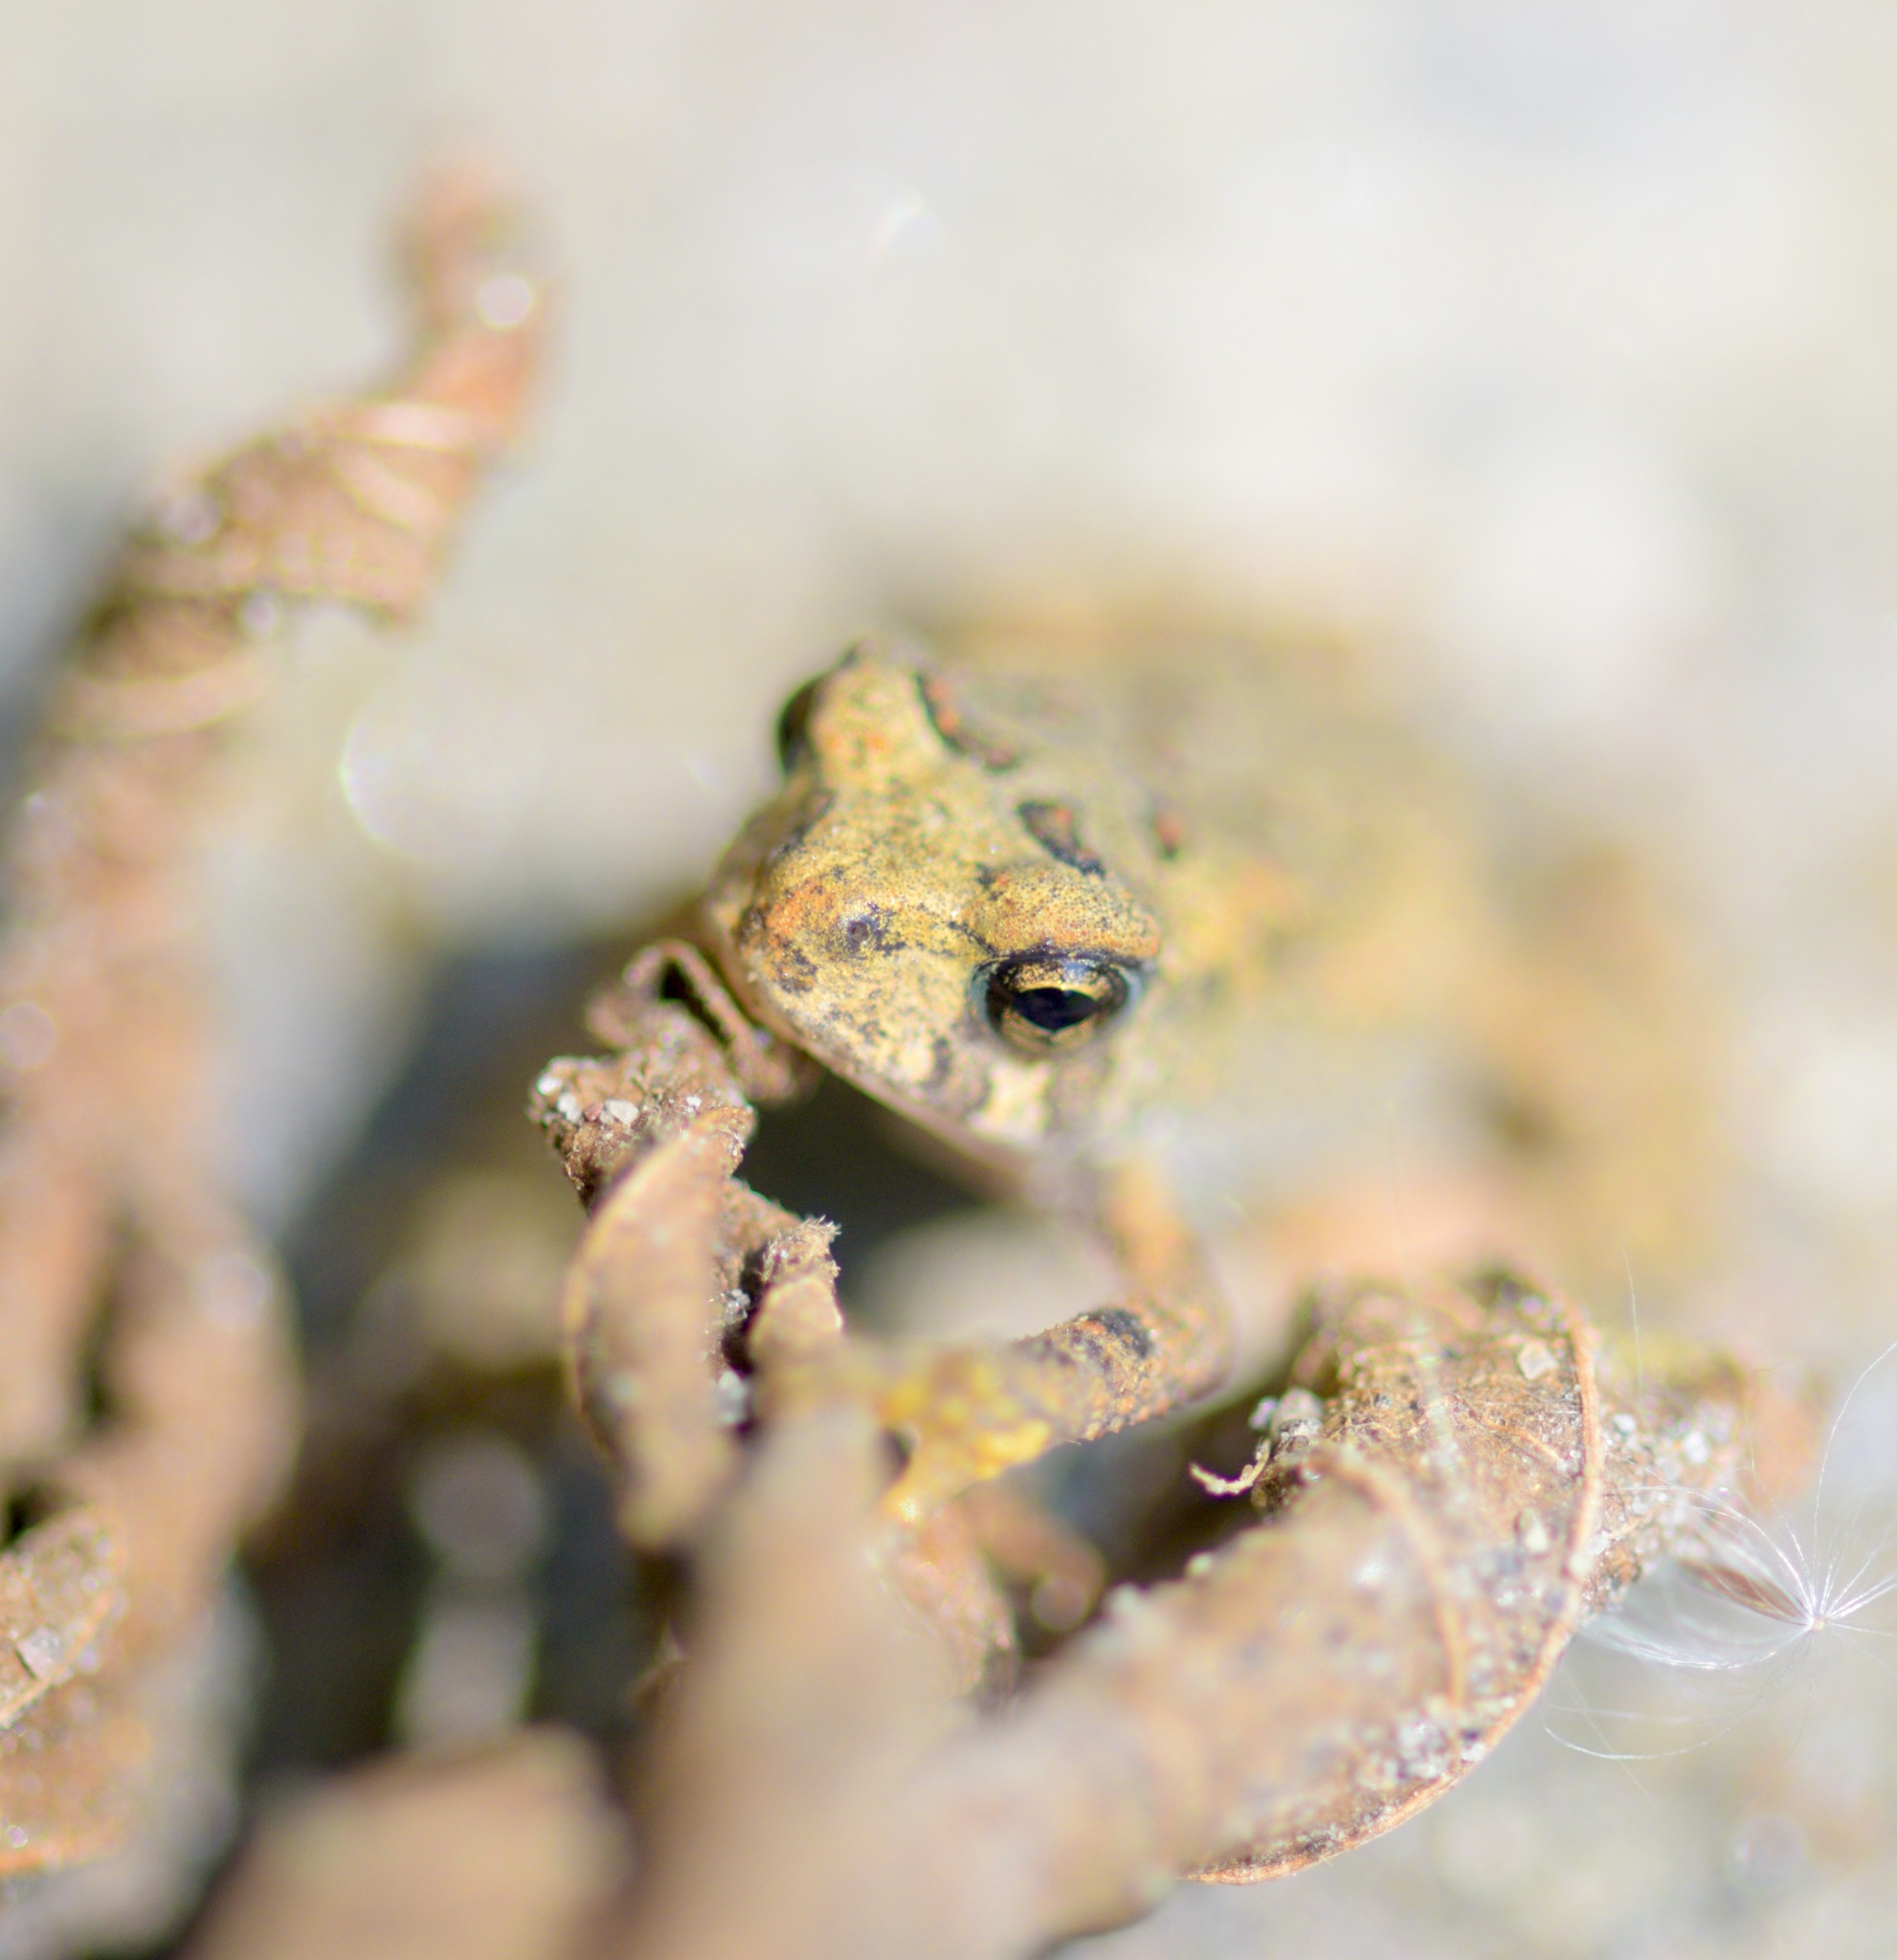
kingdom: Animalia
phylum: Chordata
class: Amphibia
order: Anura
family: Bufonidae
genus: Anaxyrus
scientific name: Anaxyrus americanus
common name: American toad
